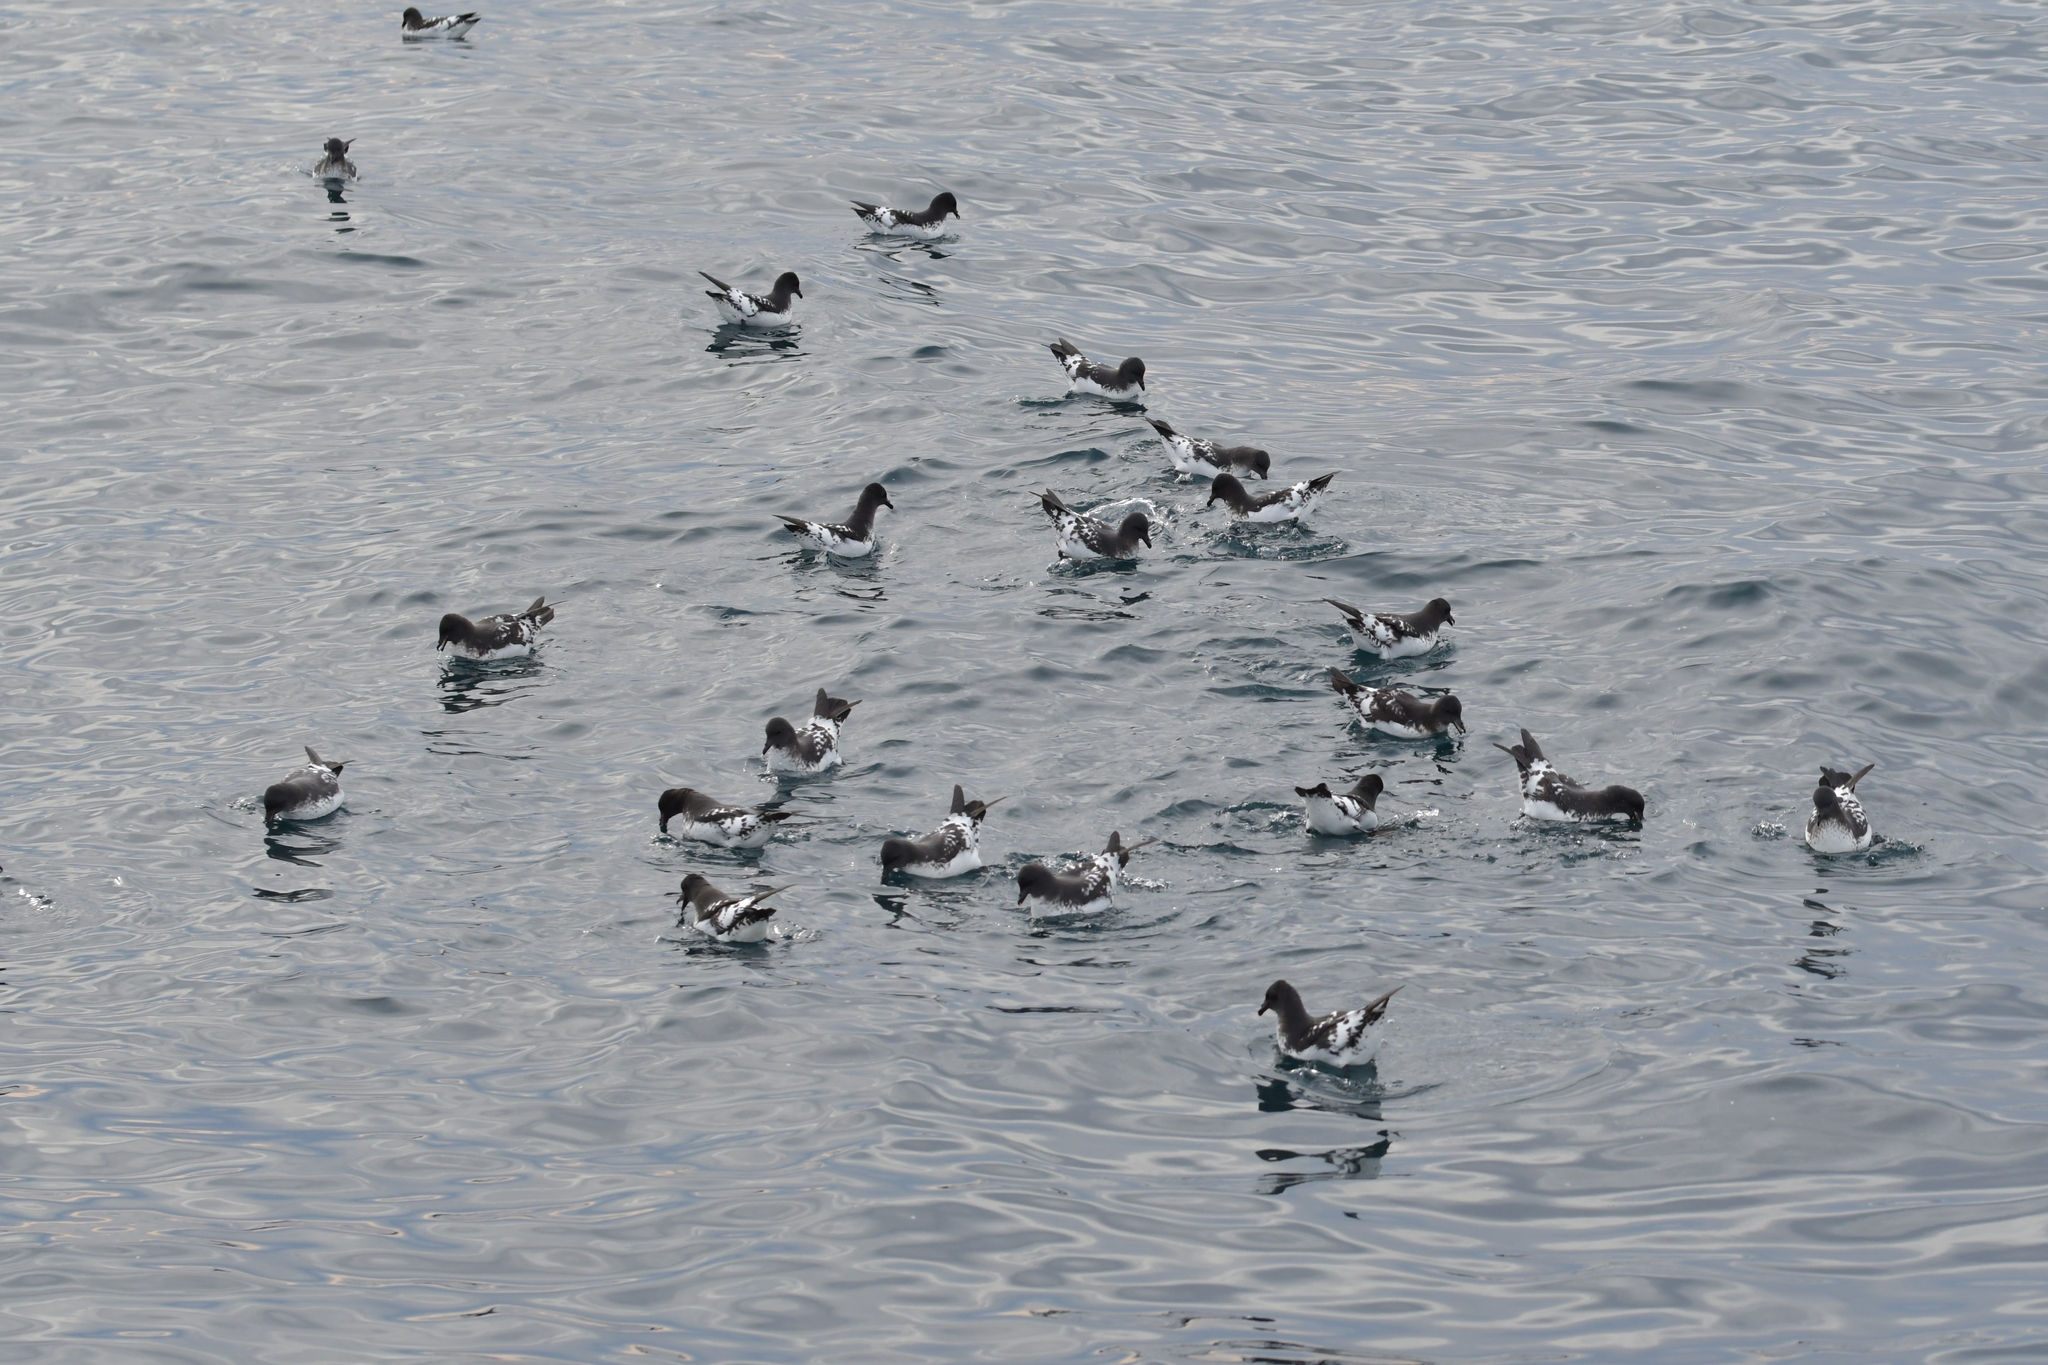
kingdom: Animalia
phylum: Chordata
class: Aves
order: Procellariiformes
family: Procellariidae
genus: Daption
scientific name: Daption capense
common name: Cape petrel
